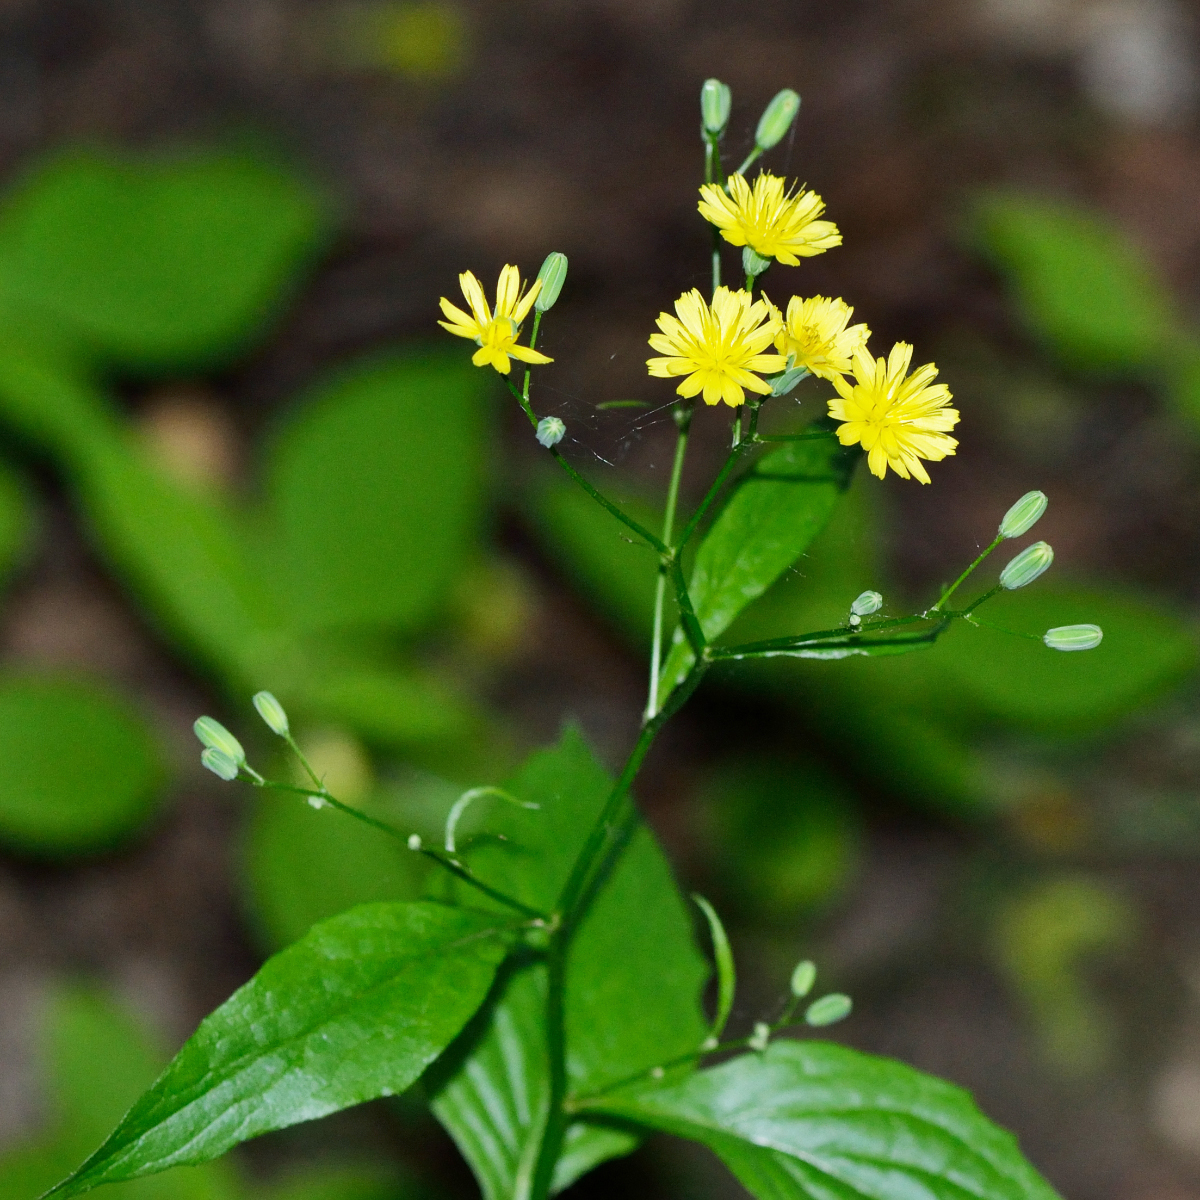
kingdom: Plantae
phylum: Tracheophyta
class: Magnoliopsida
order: Asterales
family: Asteraceae
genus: Lapsana
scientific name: Lapsana communis
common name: Nipplewort
